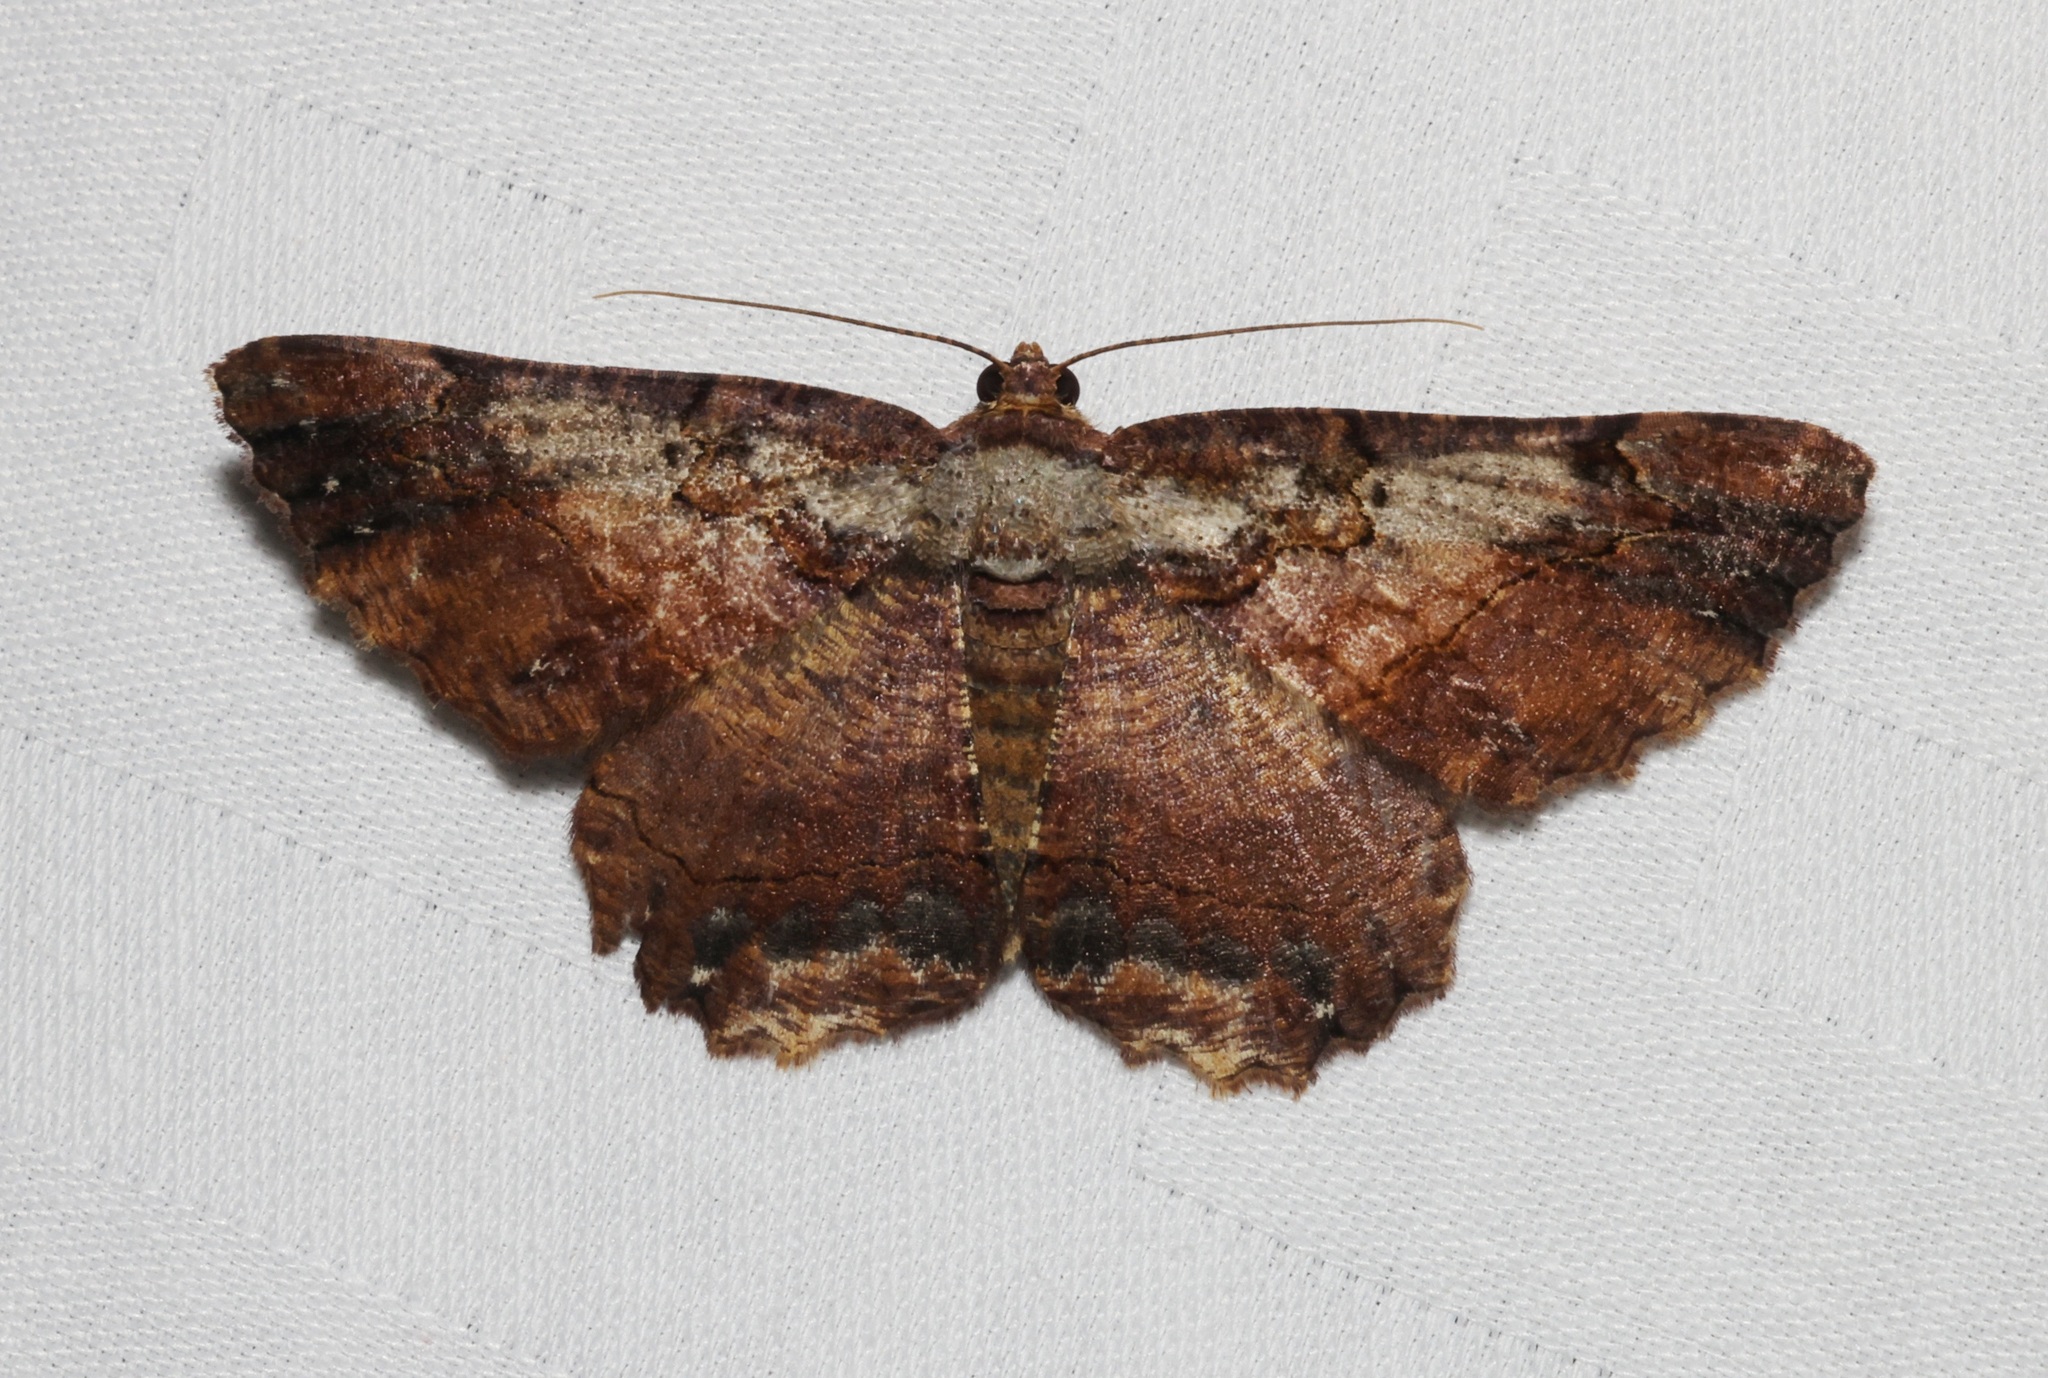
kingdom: Animalia
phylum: Arthropoda
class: Insecta
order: Lepidoptera
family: Geometridae
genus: Dasyboarmia
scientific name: Dasyboarmia subpilosa
